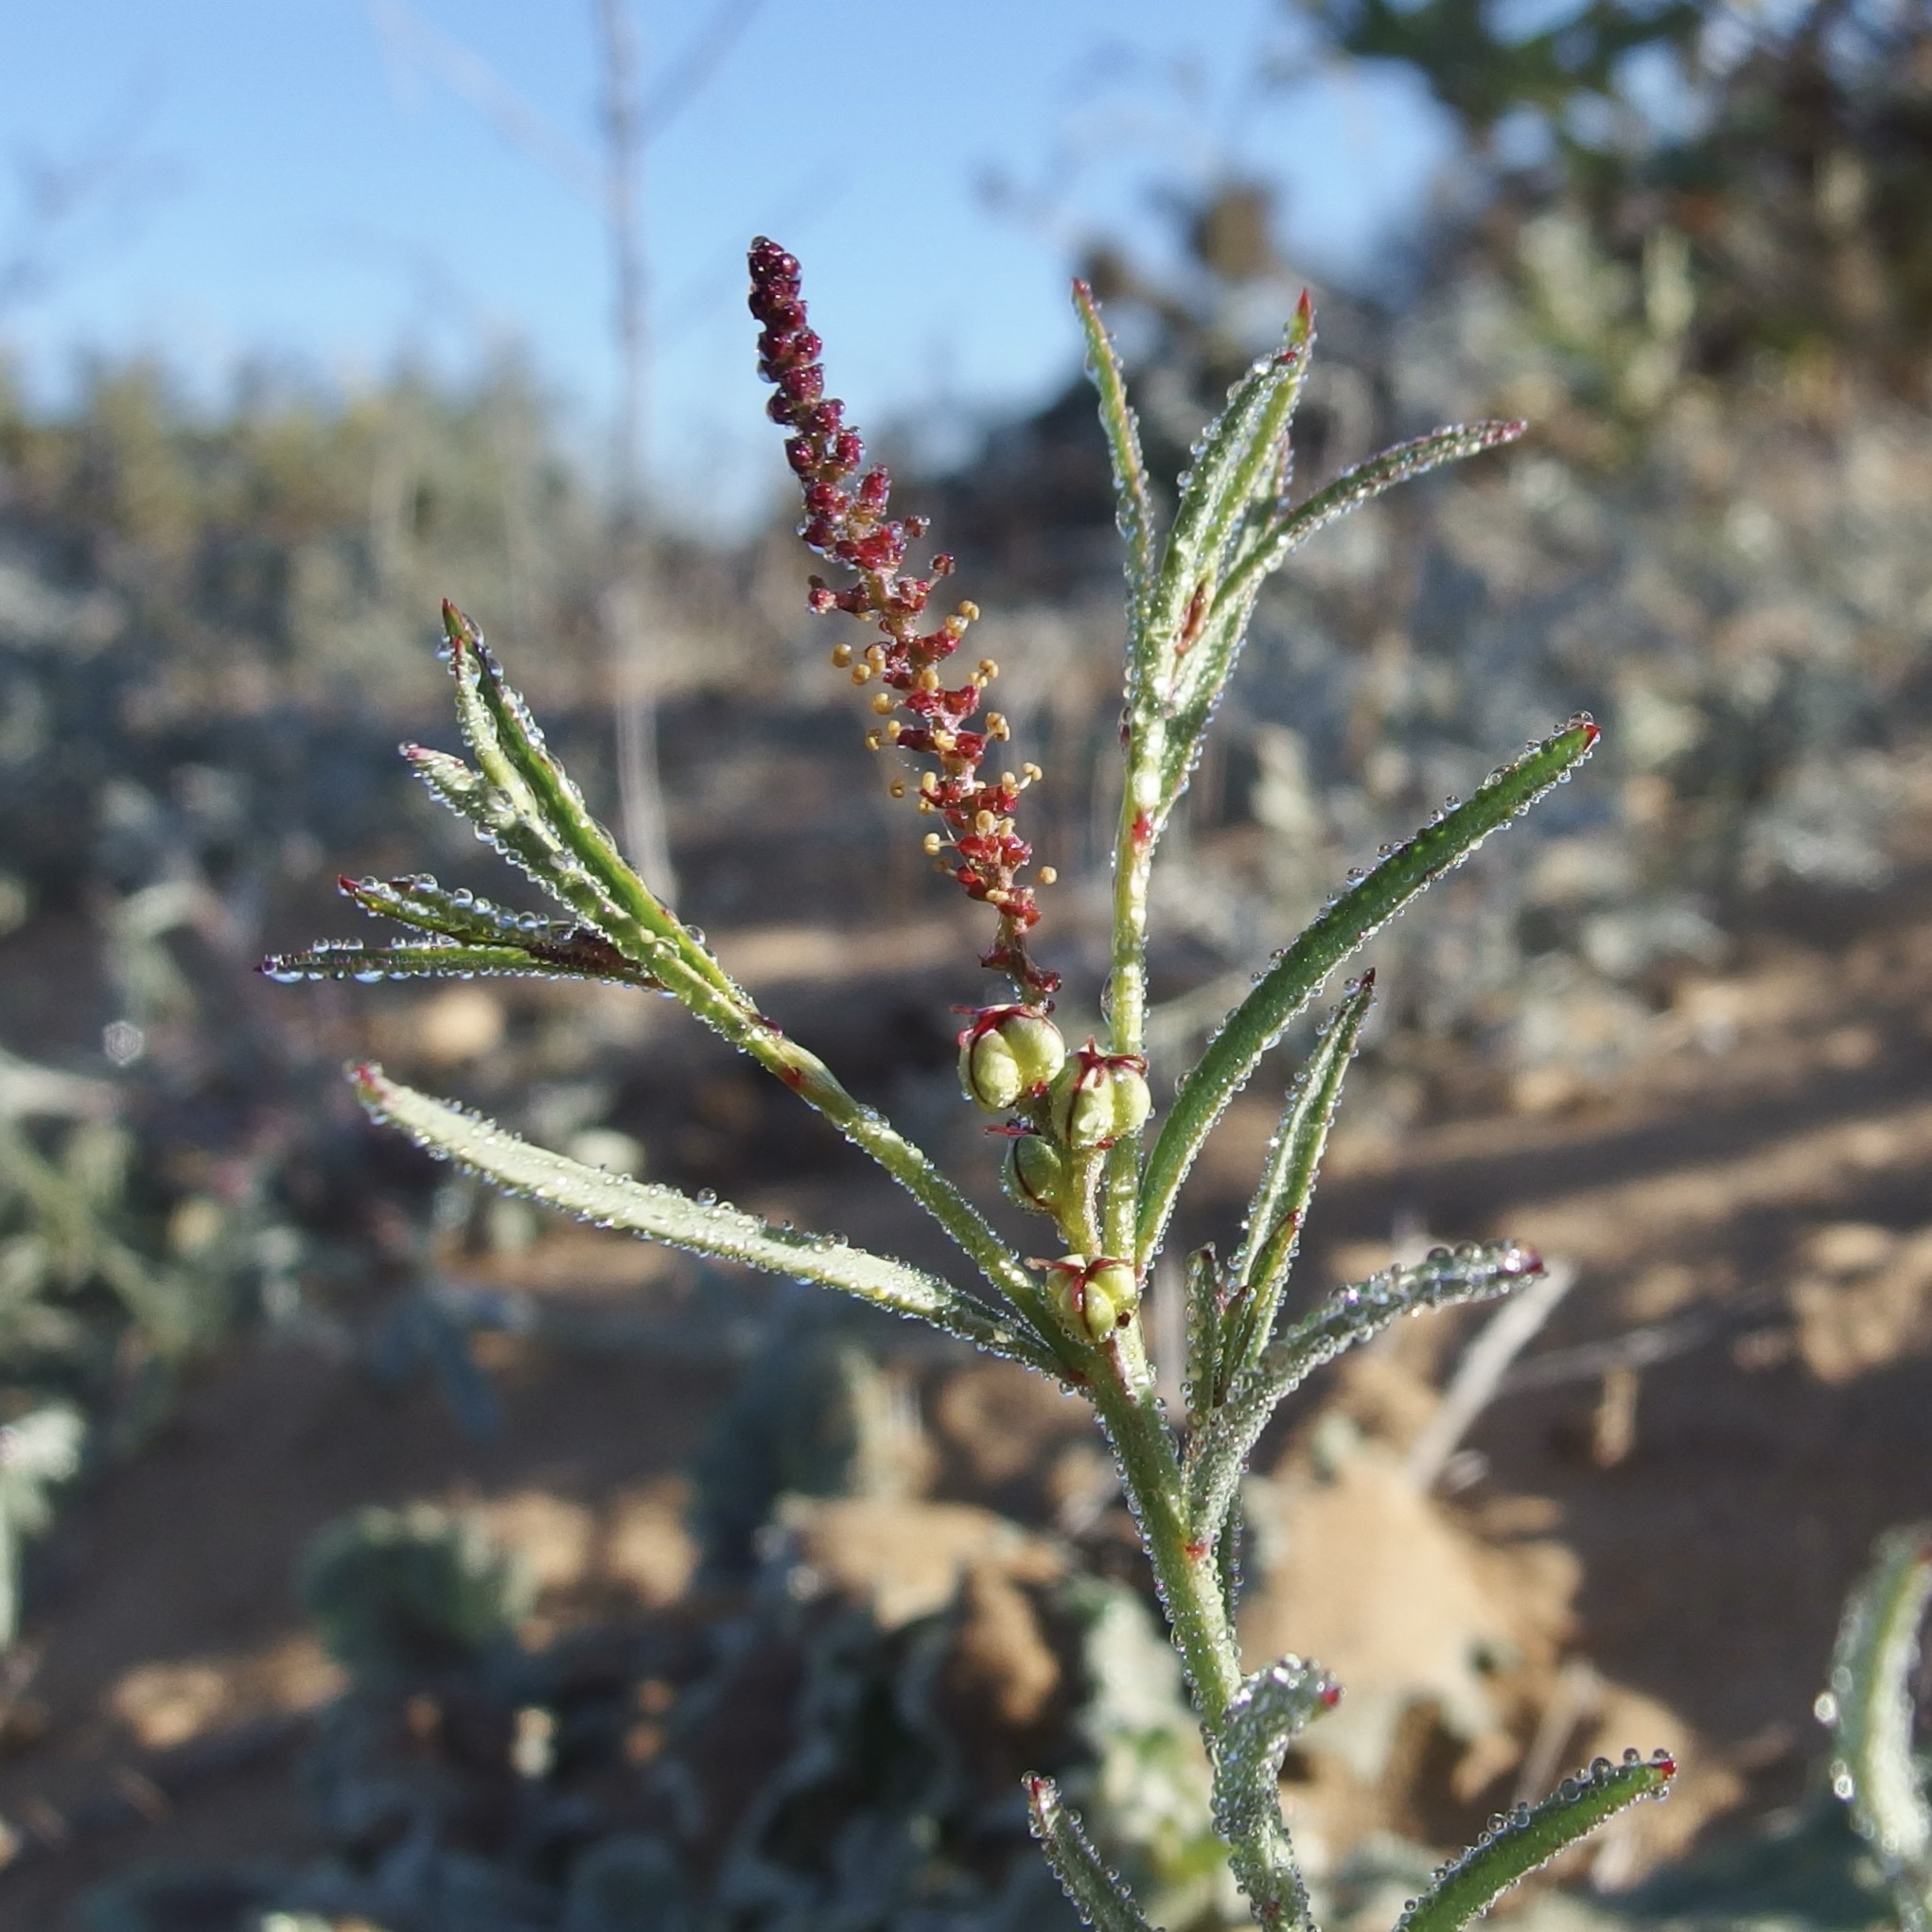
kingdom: Plantae
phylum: Tracheophyta
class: Magnoliopsida
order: Malpighiales
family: Euphorbiaceae
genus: Stillingia
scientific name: Stillingia linearifolia
